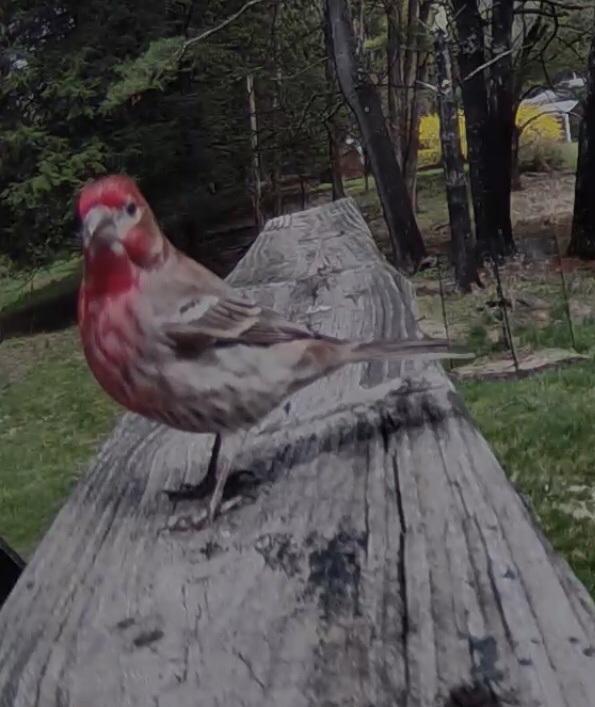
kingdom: Animalia
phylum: Chordata
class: Aves
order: Passeriformes
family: Fringillidae
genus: Haemorhous
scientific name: Haemorhous mexicanus
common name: House finch
